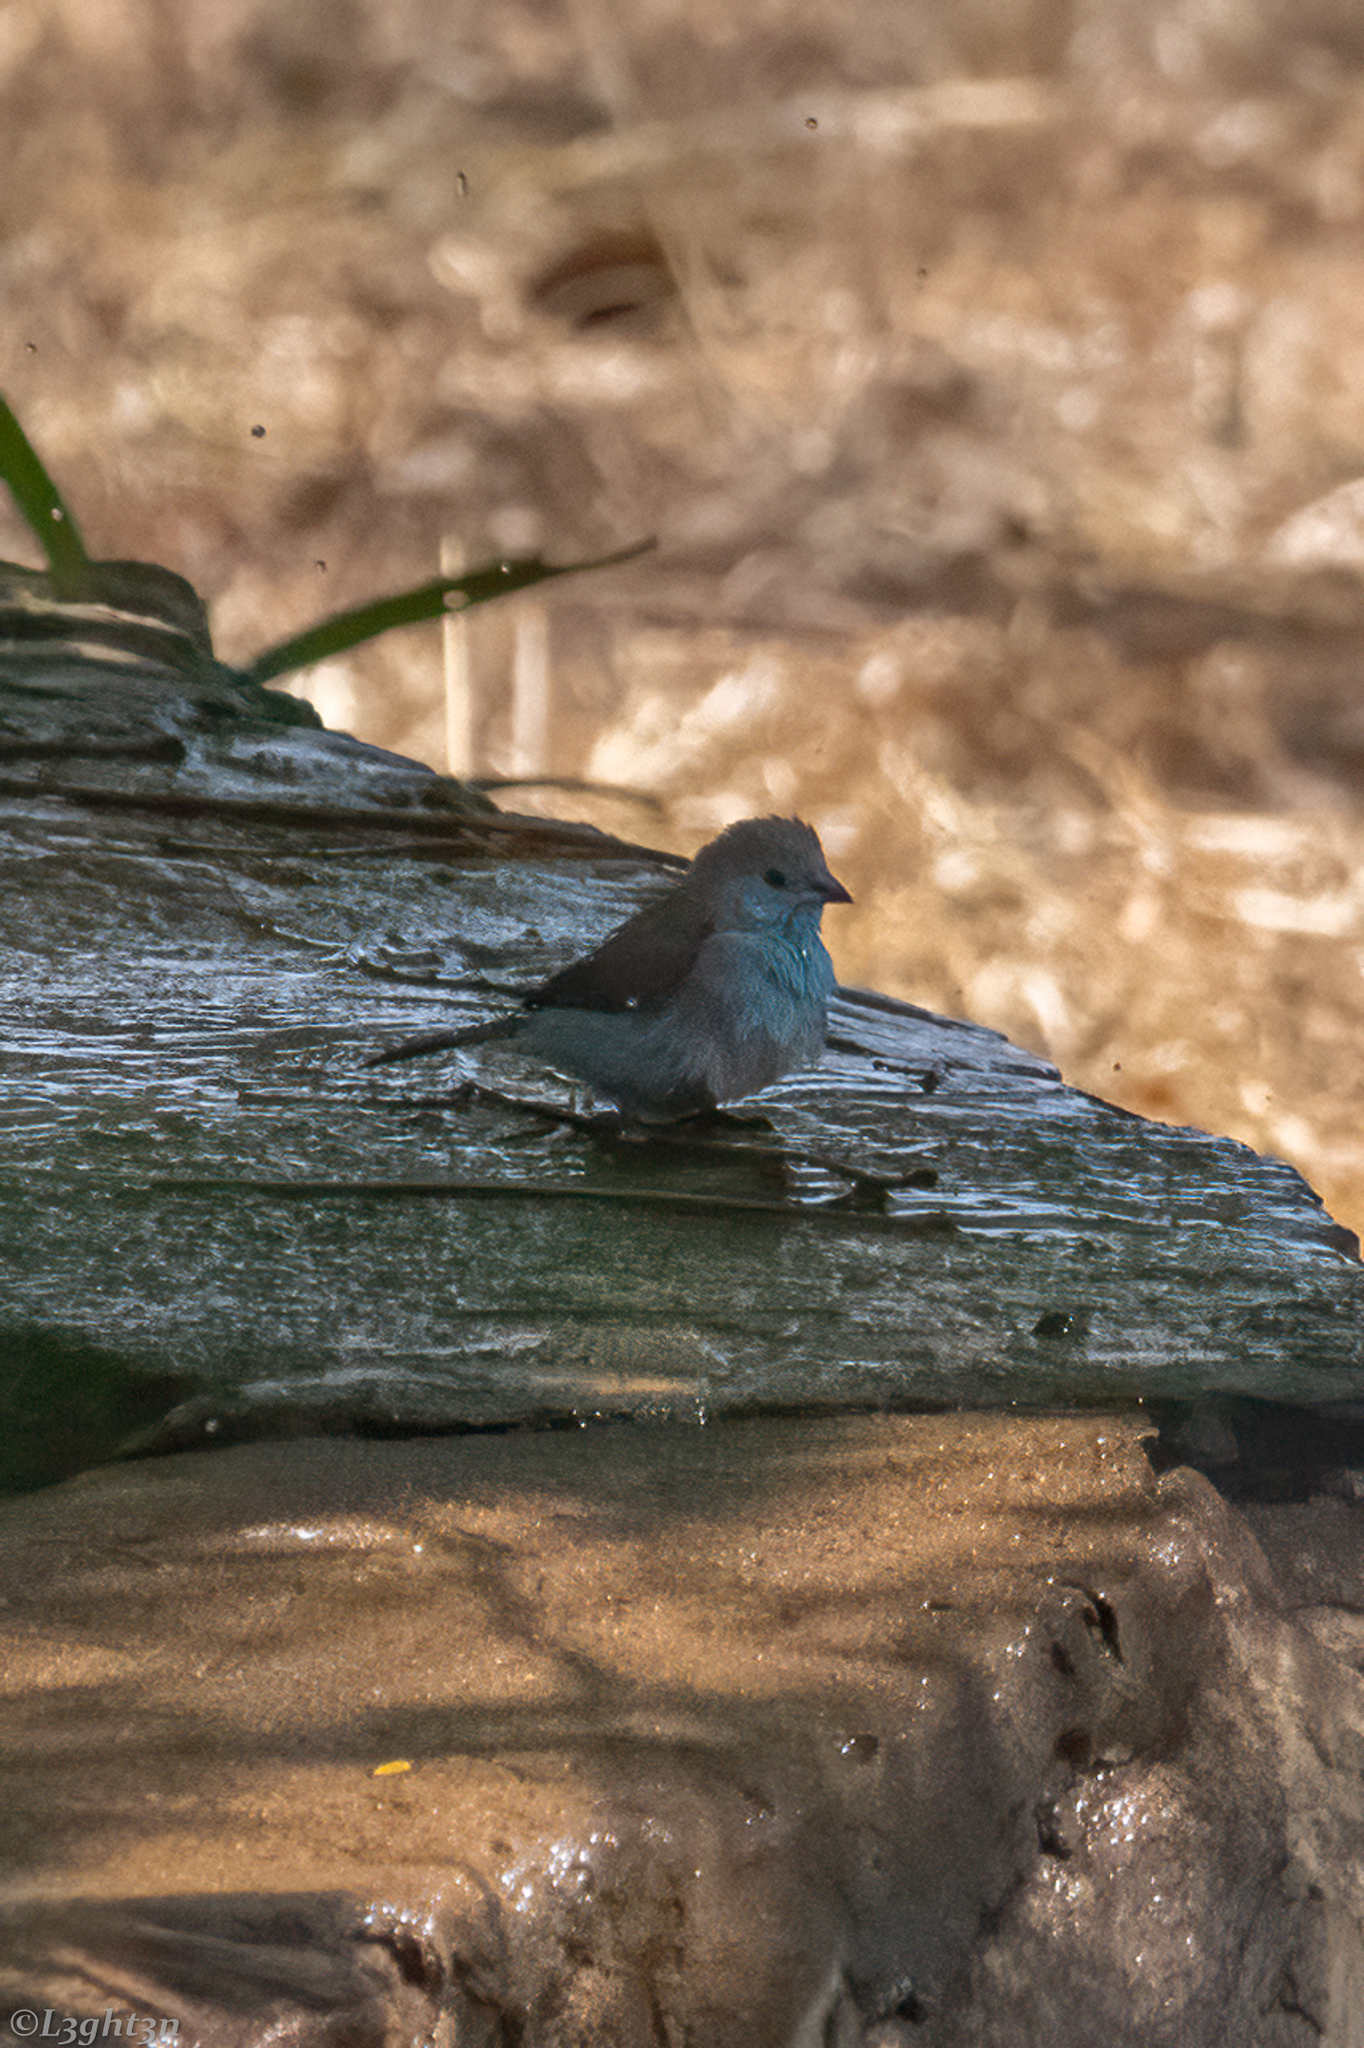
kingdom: Animalia
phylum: Chordata
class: Aves
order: Passeriformes
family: Estrildidae
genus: Uraeginthus
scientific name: Uraeginthus angolensis
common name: Blue waxbill
